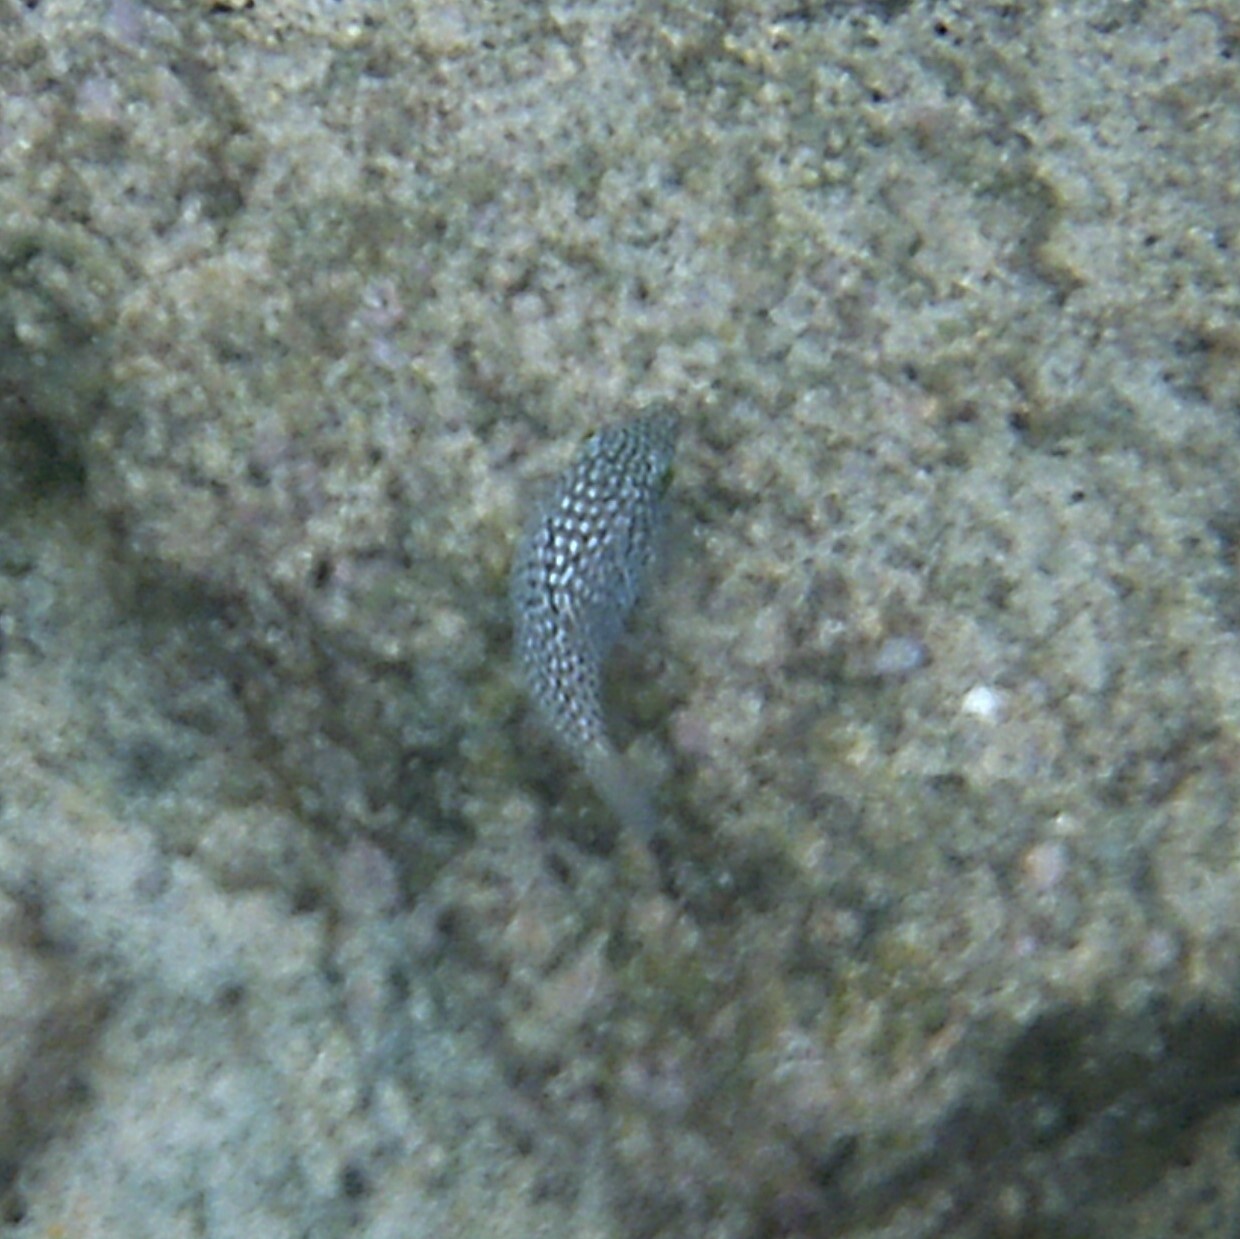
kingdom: Animalia
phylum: Chordata
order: Tetraodontiformes
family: Tetraodontidae
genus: Canthigaster
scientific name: Canthigaster jactator
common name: Hawaiian whitespotted toby
